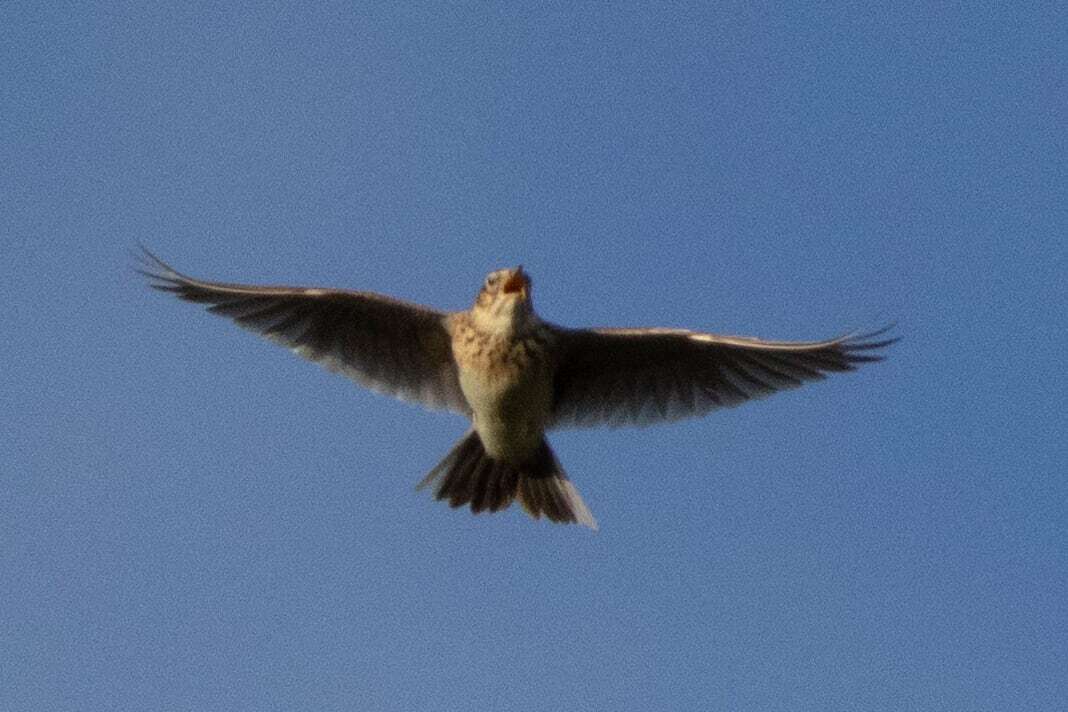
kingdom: Animalia
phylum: Chordata
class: Aves
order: Passeriformes
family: Alaudidae
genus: Alauda
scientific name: Alauda arvensis
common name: Eurasian skylark
